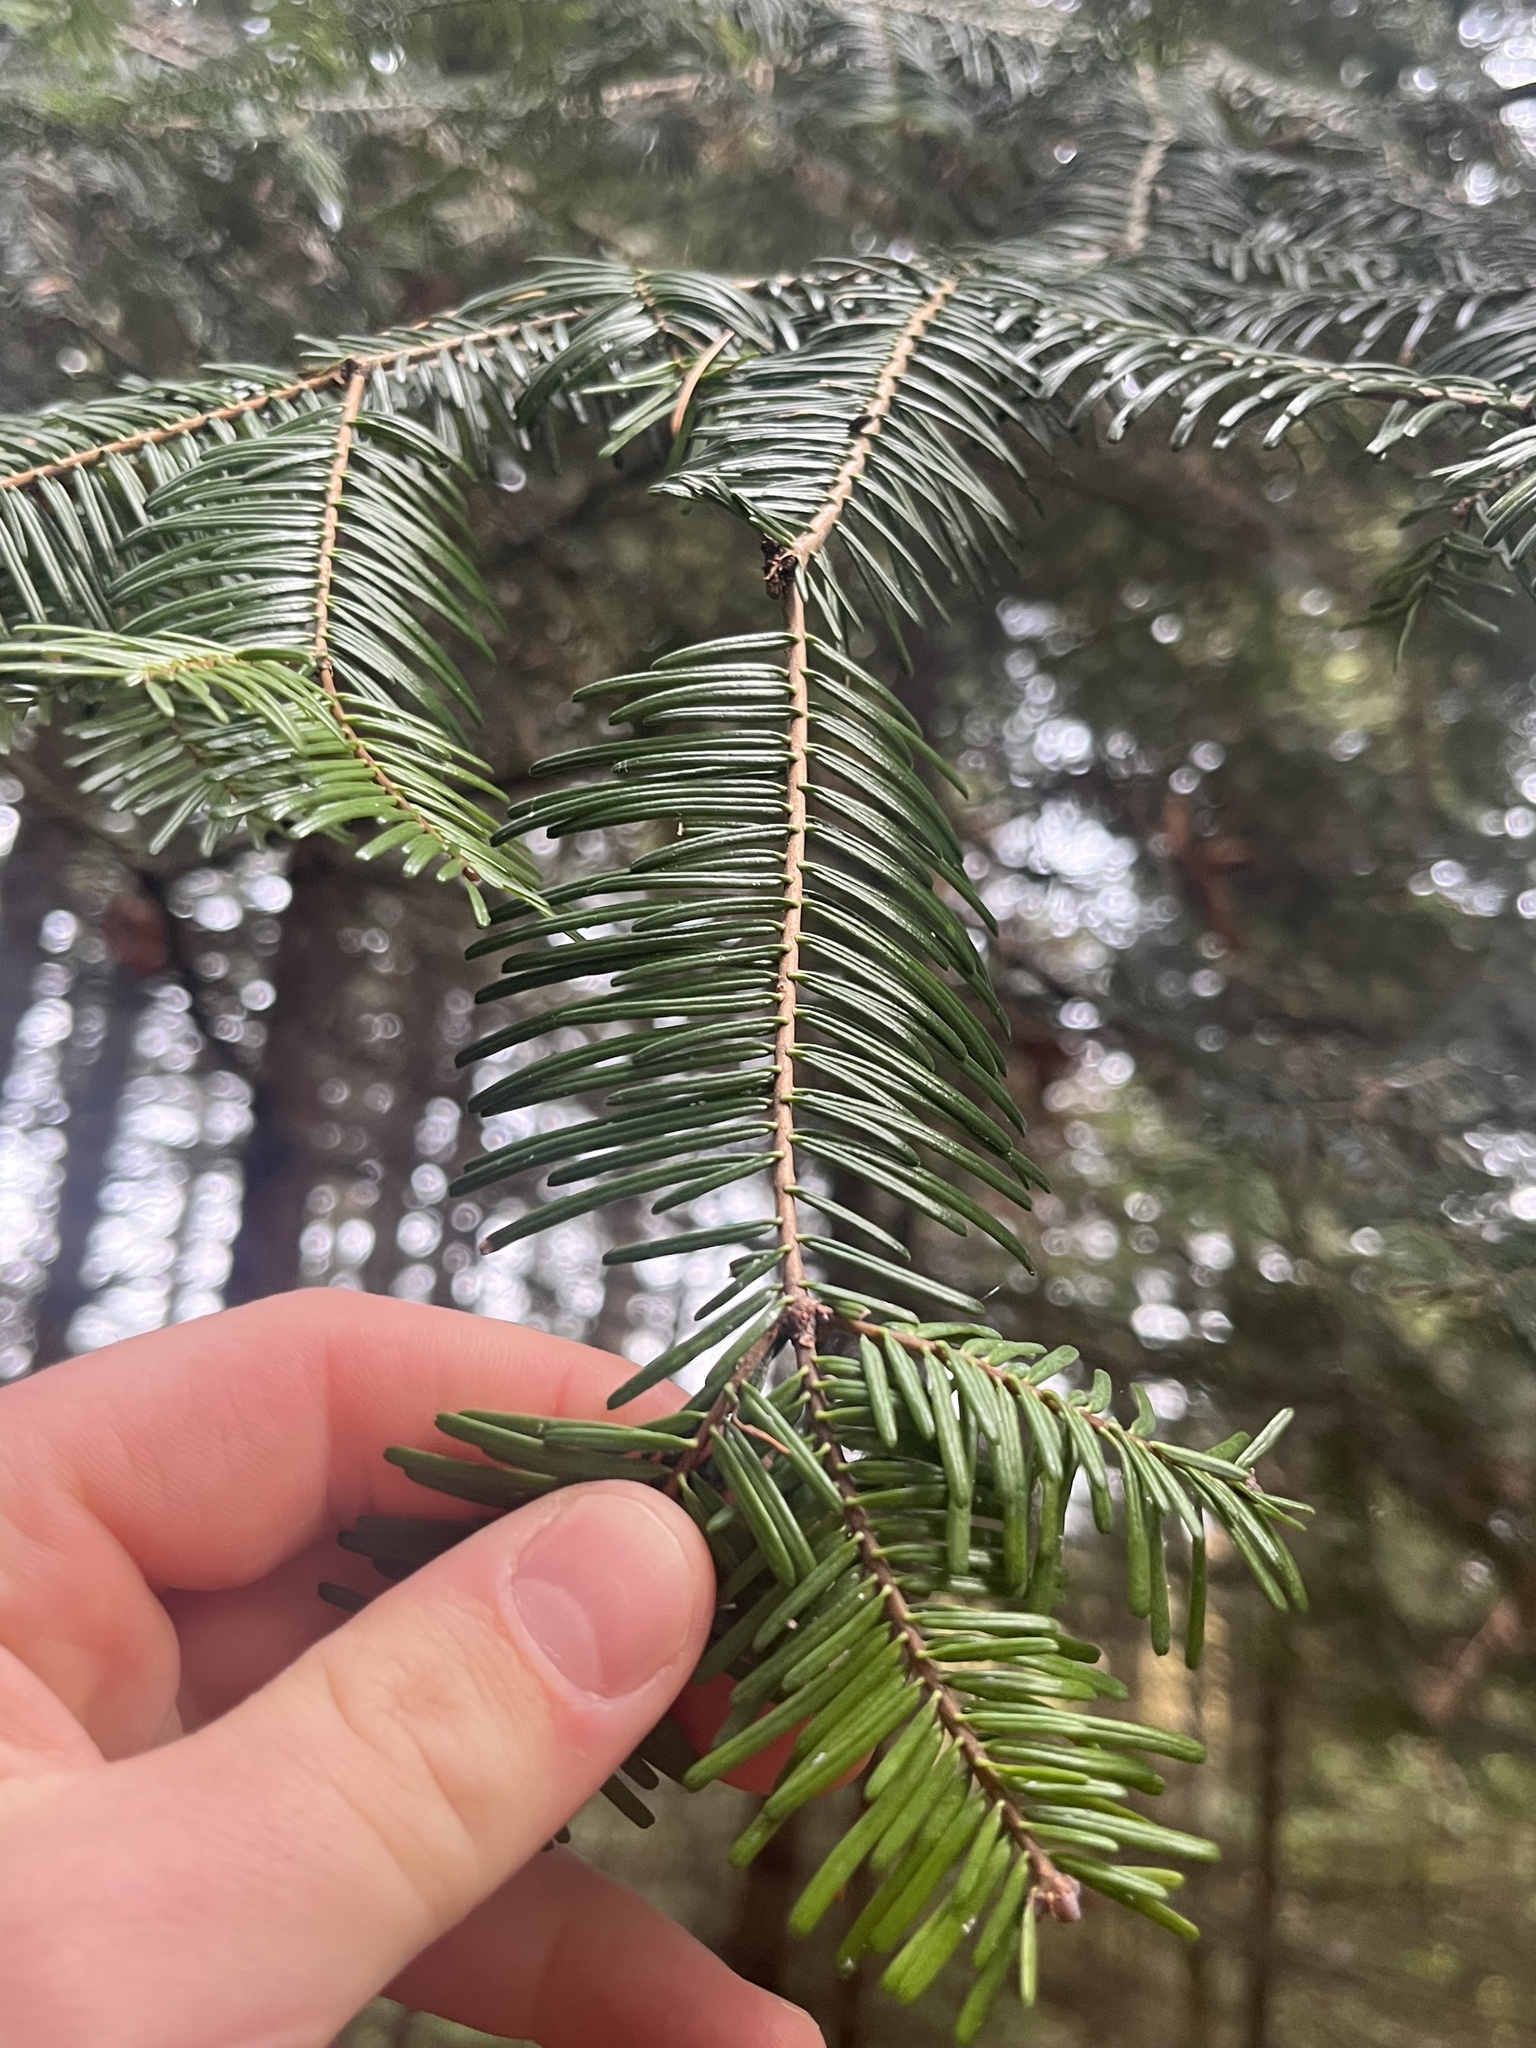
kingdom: Plantae
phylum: Tracheophyta
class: Pinopsida
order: Pinales
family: Pinaceae
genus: Abies
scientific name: Abies grandis
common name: Giant fir
